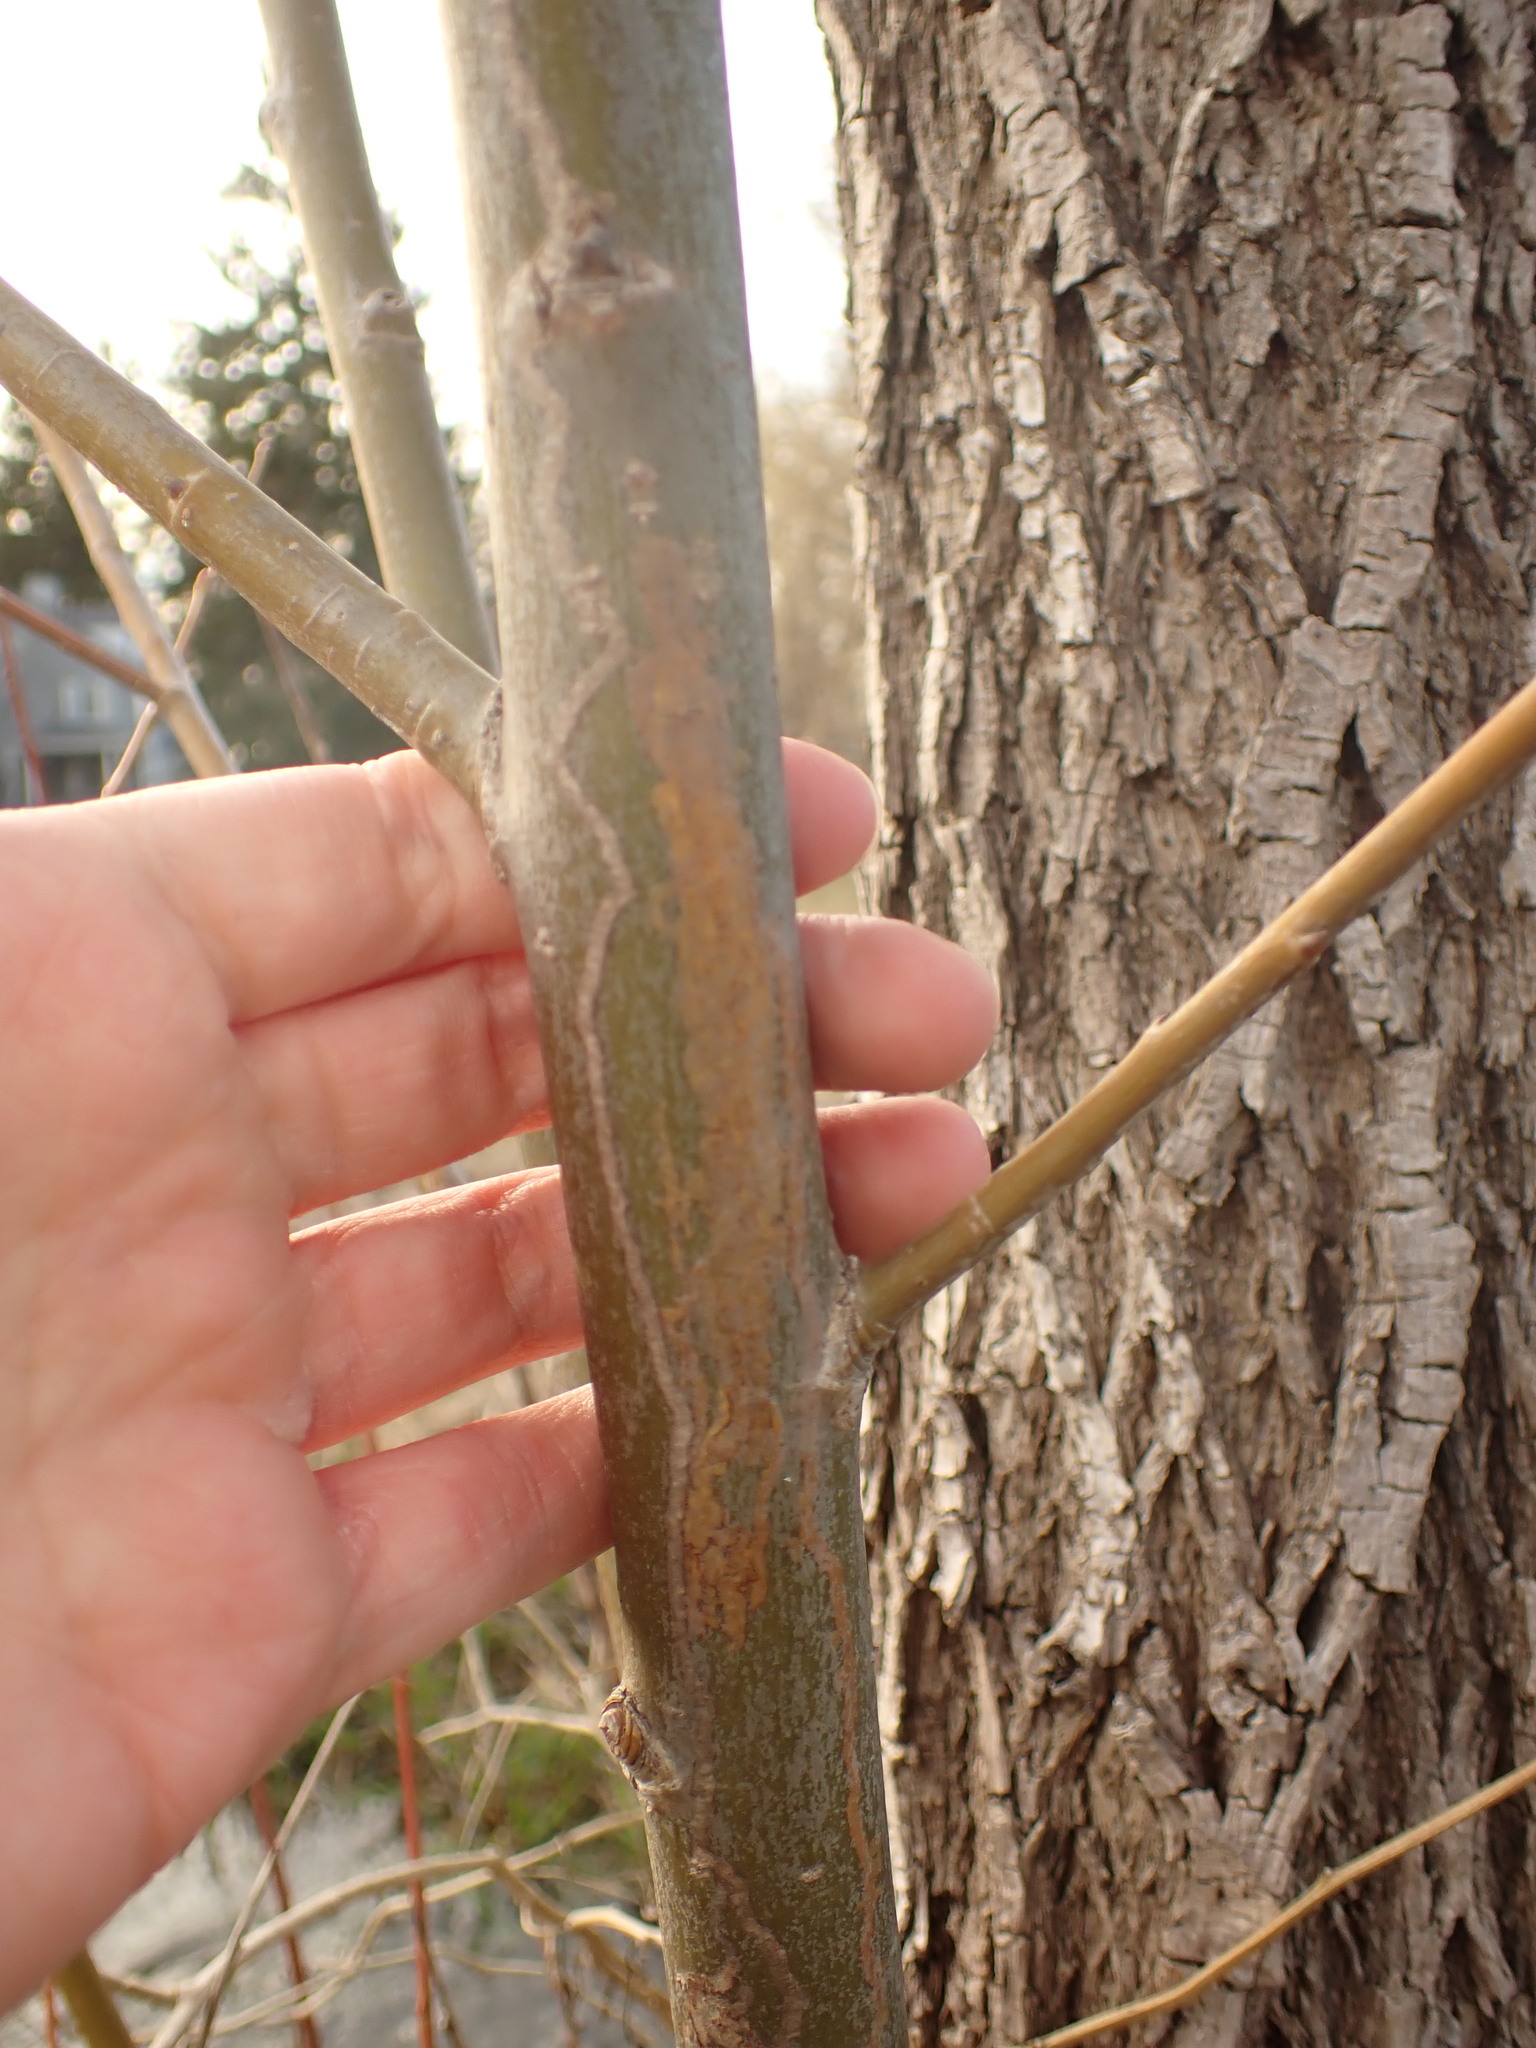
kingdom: Animalia
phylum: Arthropoda
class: Insecta
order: Lepidoptera
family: Gracillariidae
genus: Marmara
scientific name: Marmara salictella
